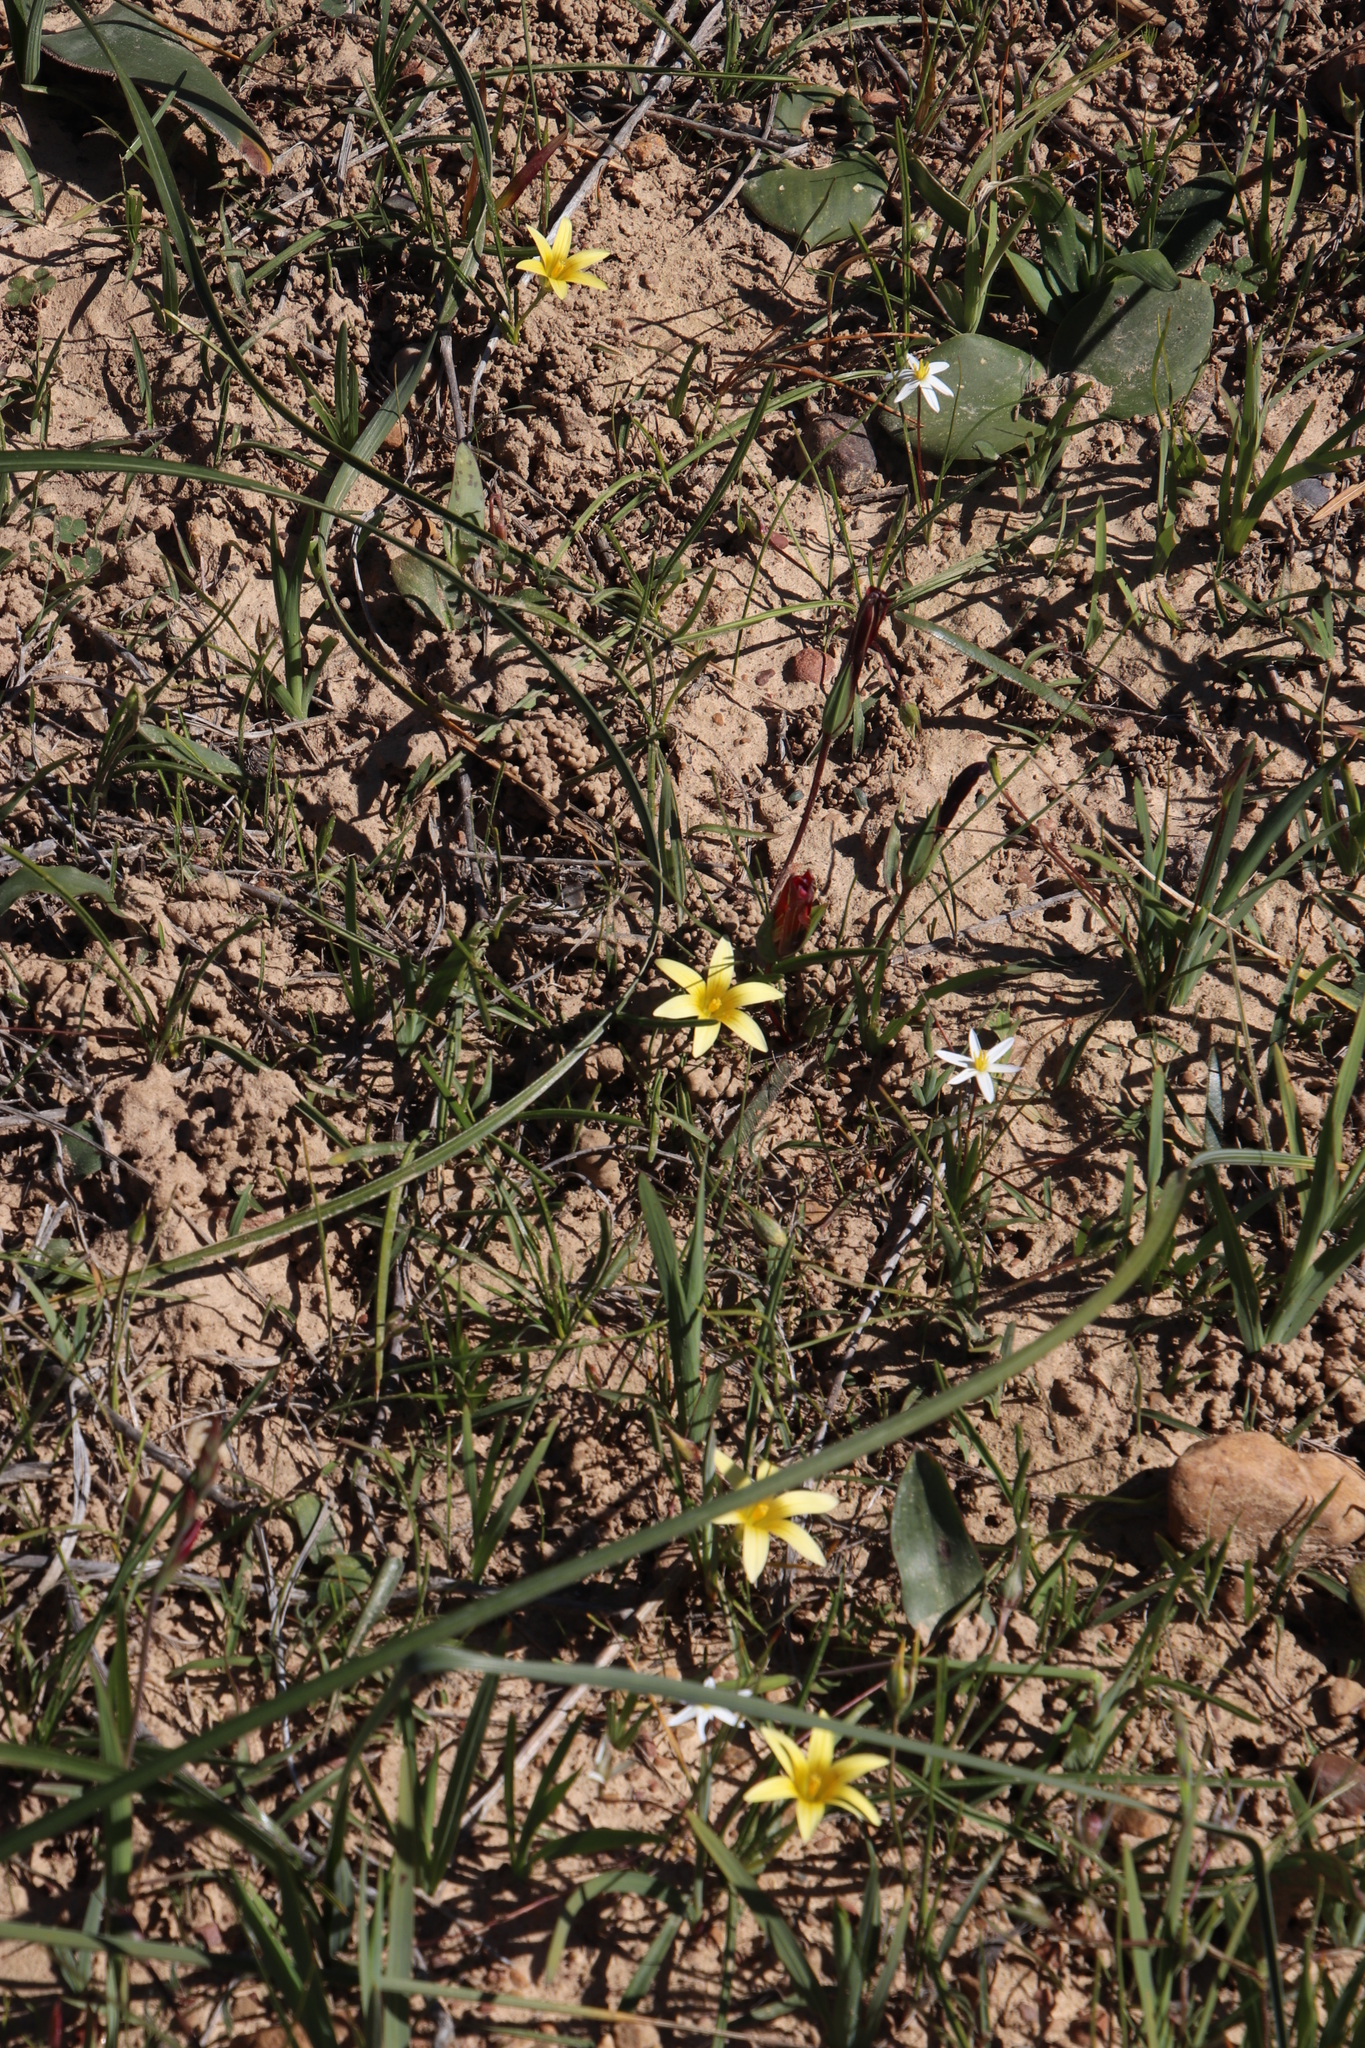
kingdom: Plantae
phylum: Tracheophyta
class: Liliopsida
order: Asparagales
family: Iridaceae
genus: Romulea
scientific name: Romulea hirta
